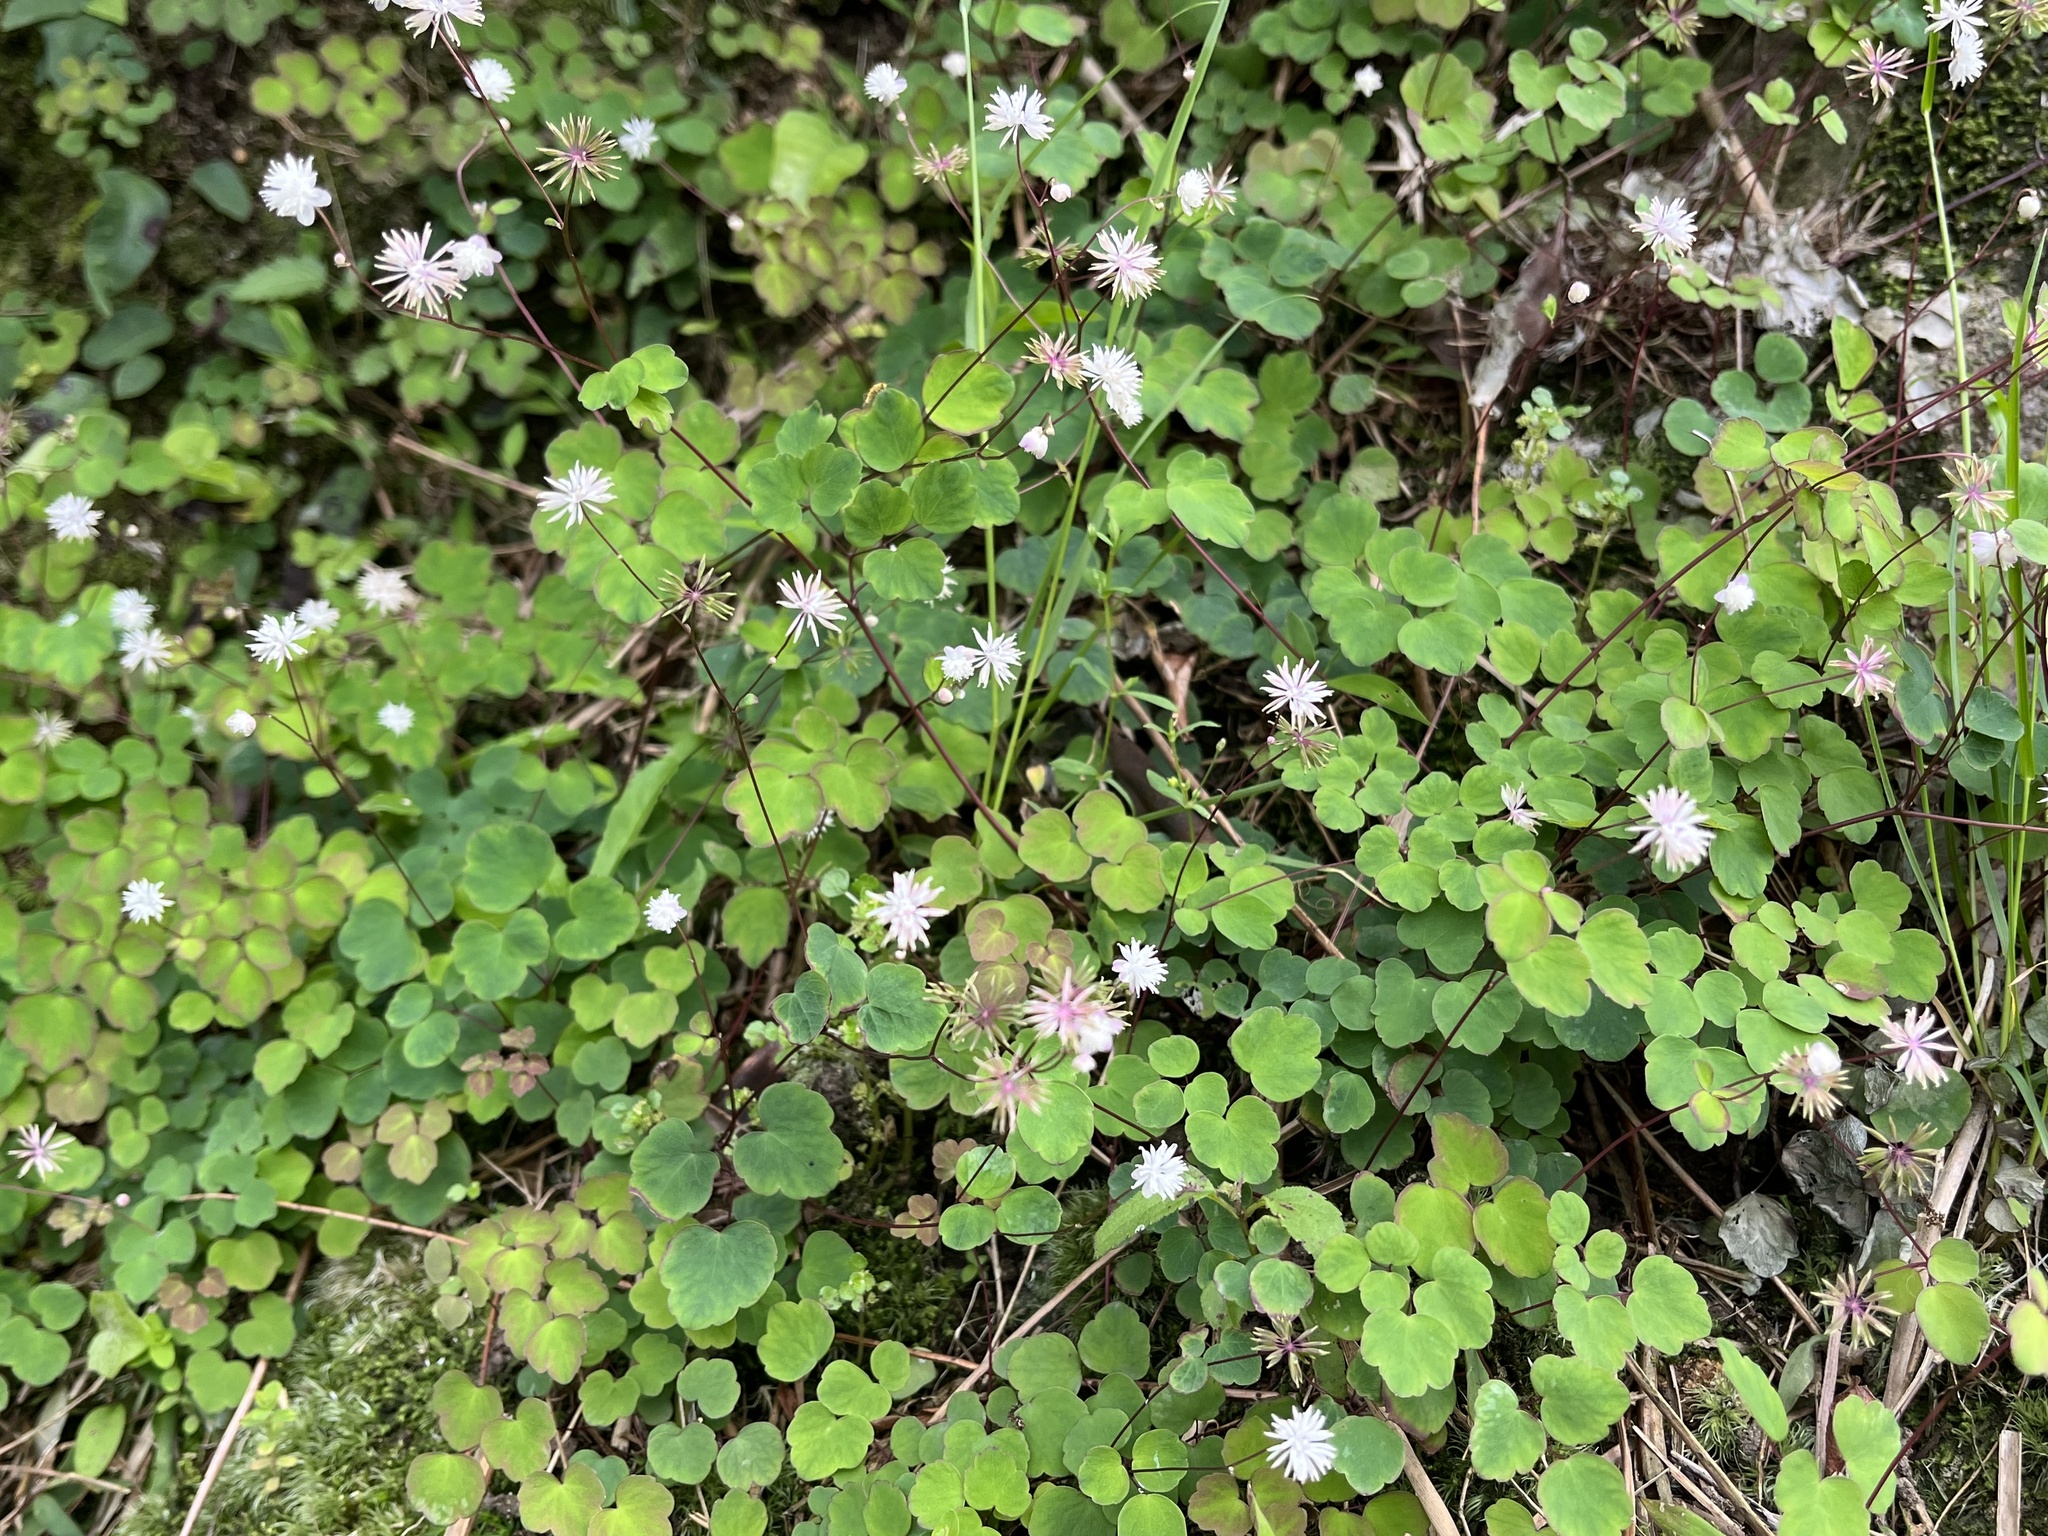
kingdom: Plantae
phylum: Tracheophyta
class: Magnoliopsida
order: Ranunculales
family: Ranunculaceae
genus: Thalictrum
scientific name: Thalictrum urbaini
